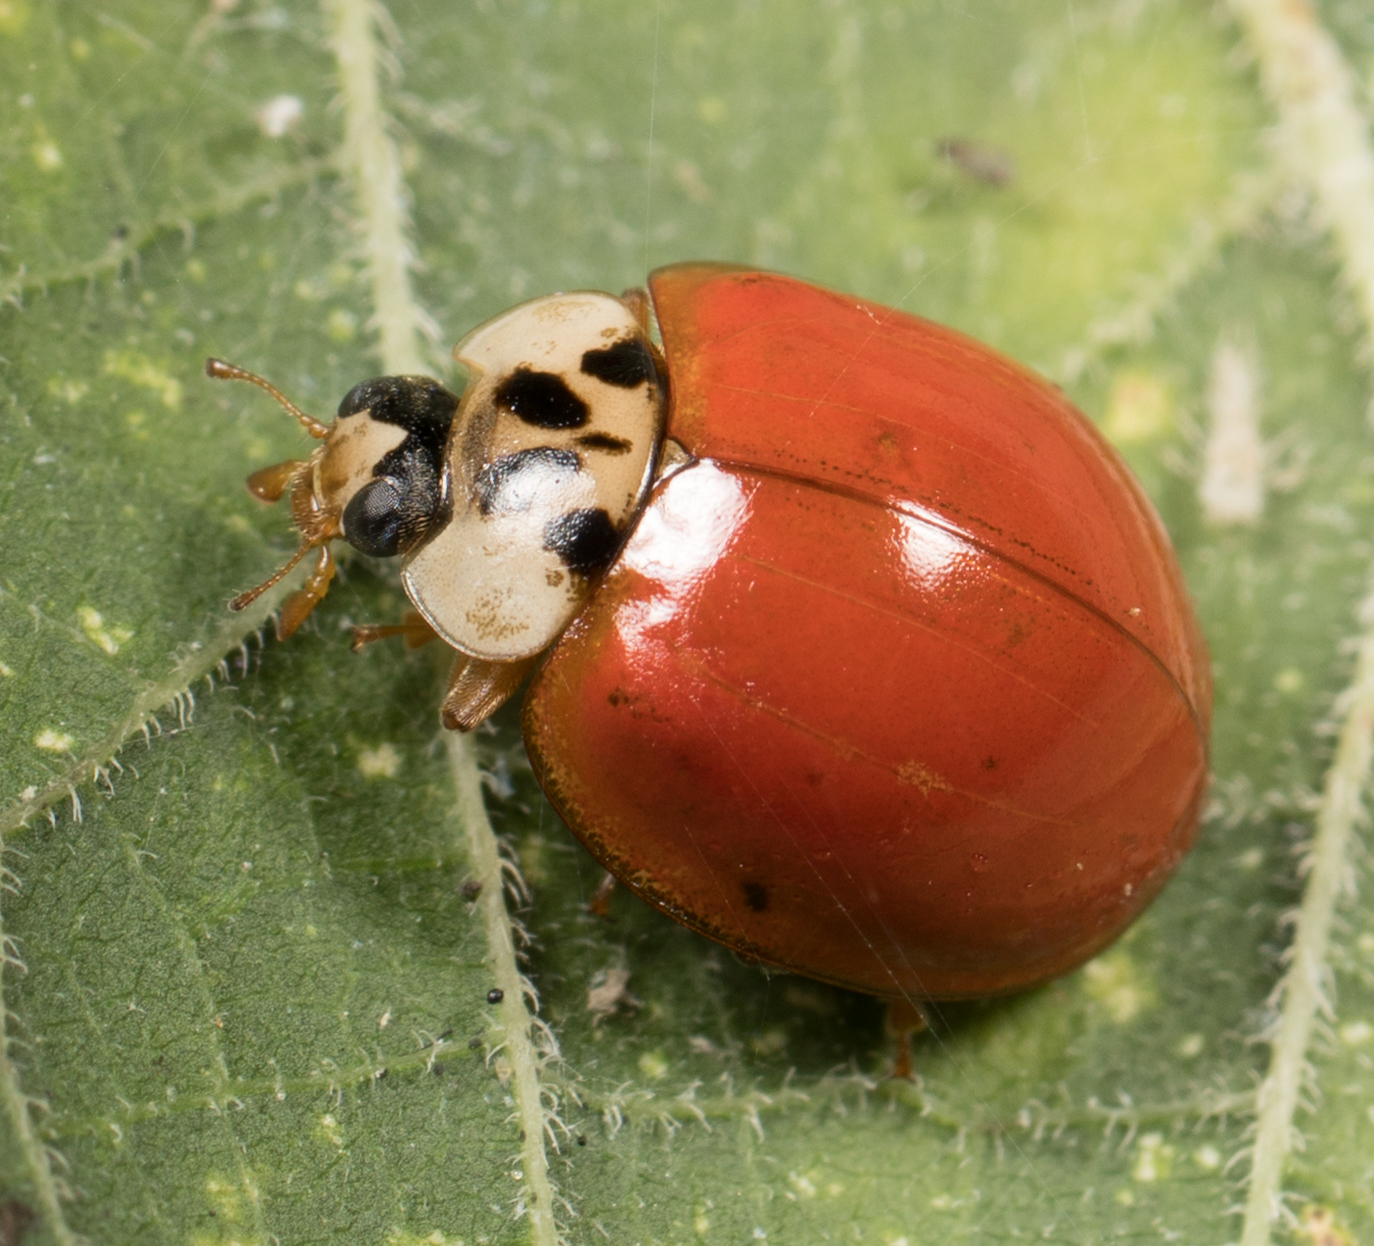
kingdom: Animalia
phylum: Arthropoda
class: Insecta
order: Coleoptera
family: Coccinellidae
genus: Harmonia
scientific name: Harmonia axyridis
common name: Harlequin ladybird
